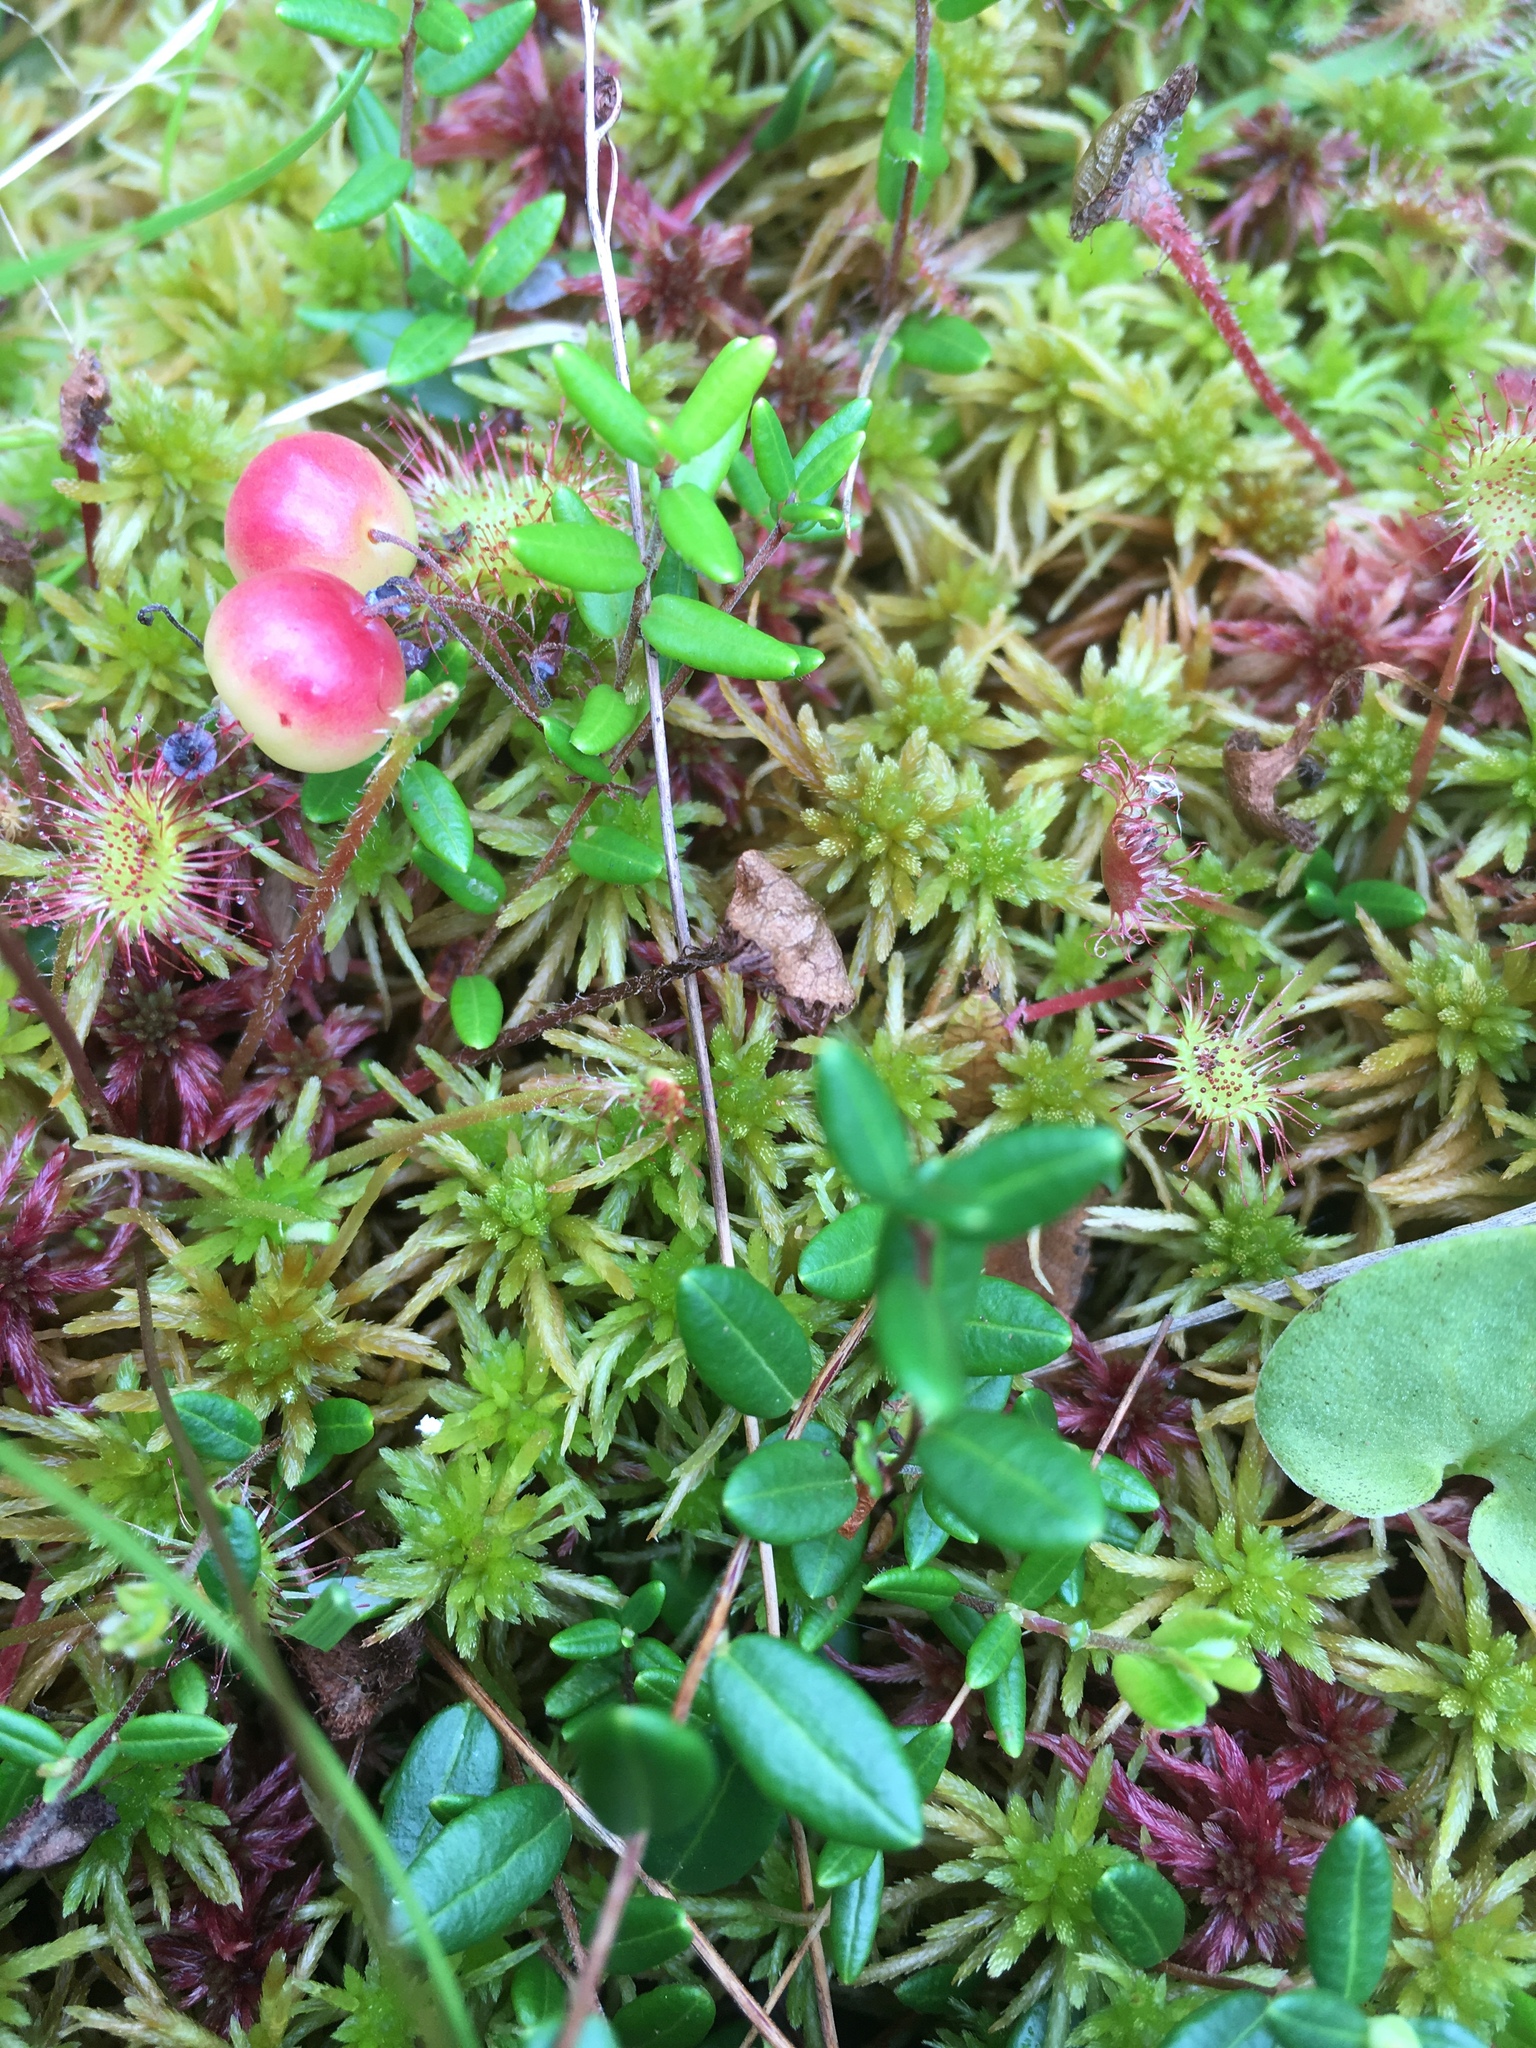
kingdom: Plantae
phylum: Tracheophyta
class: Magnoliopsida
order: Ericales
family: Ericaceae
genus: Vaccinium
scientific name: Vaccinium oxycoccos
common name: Cranberry
